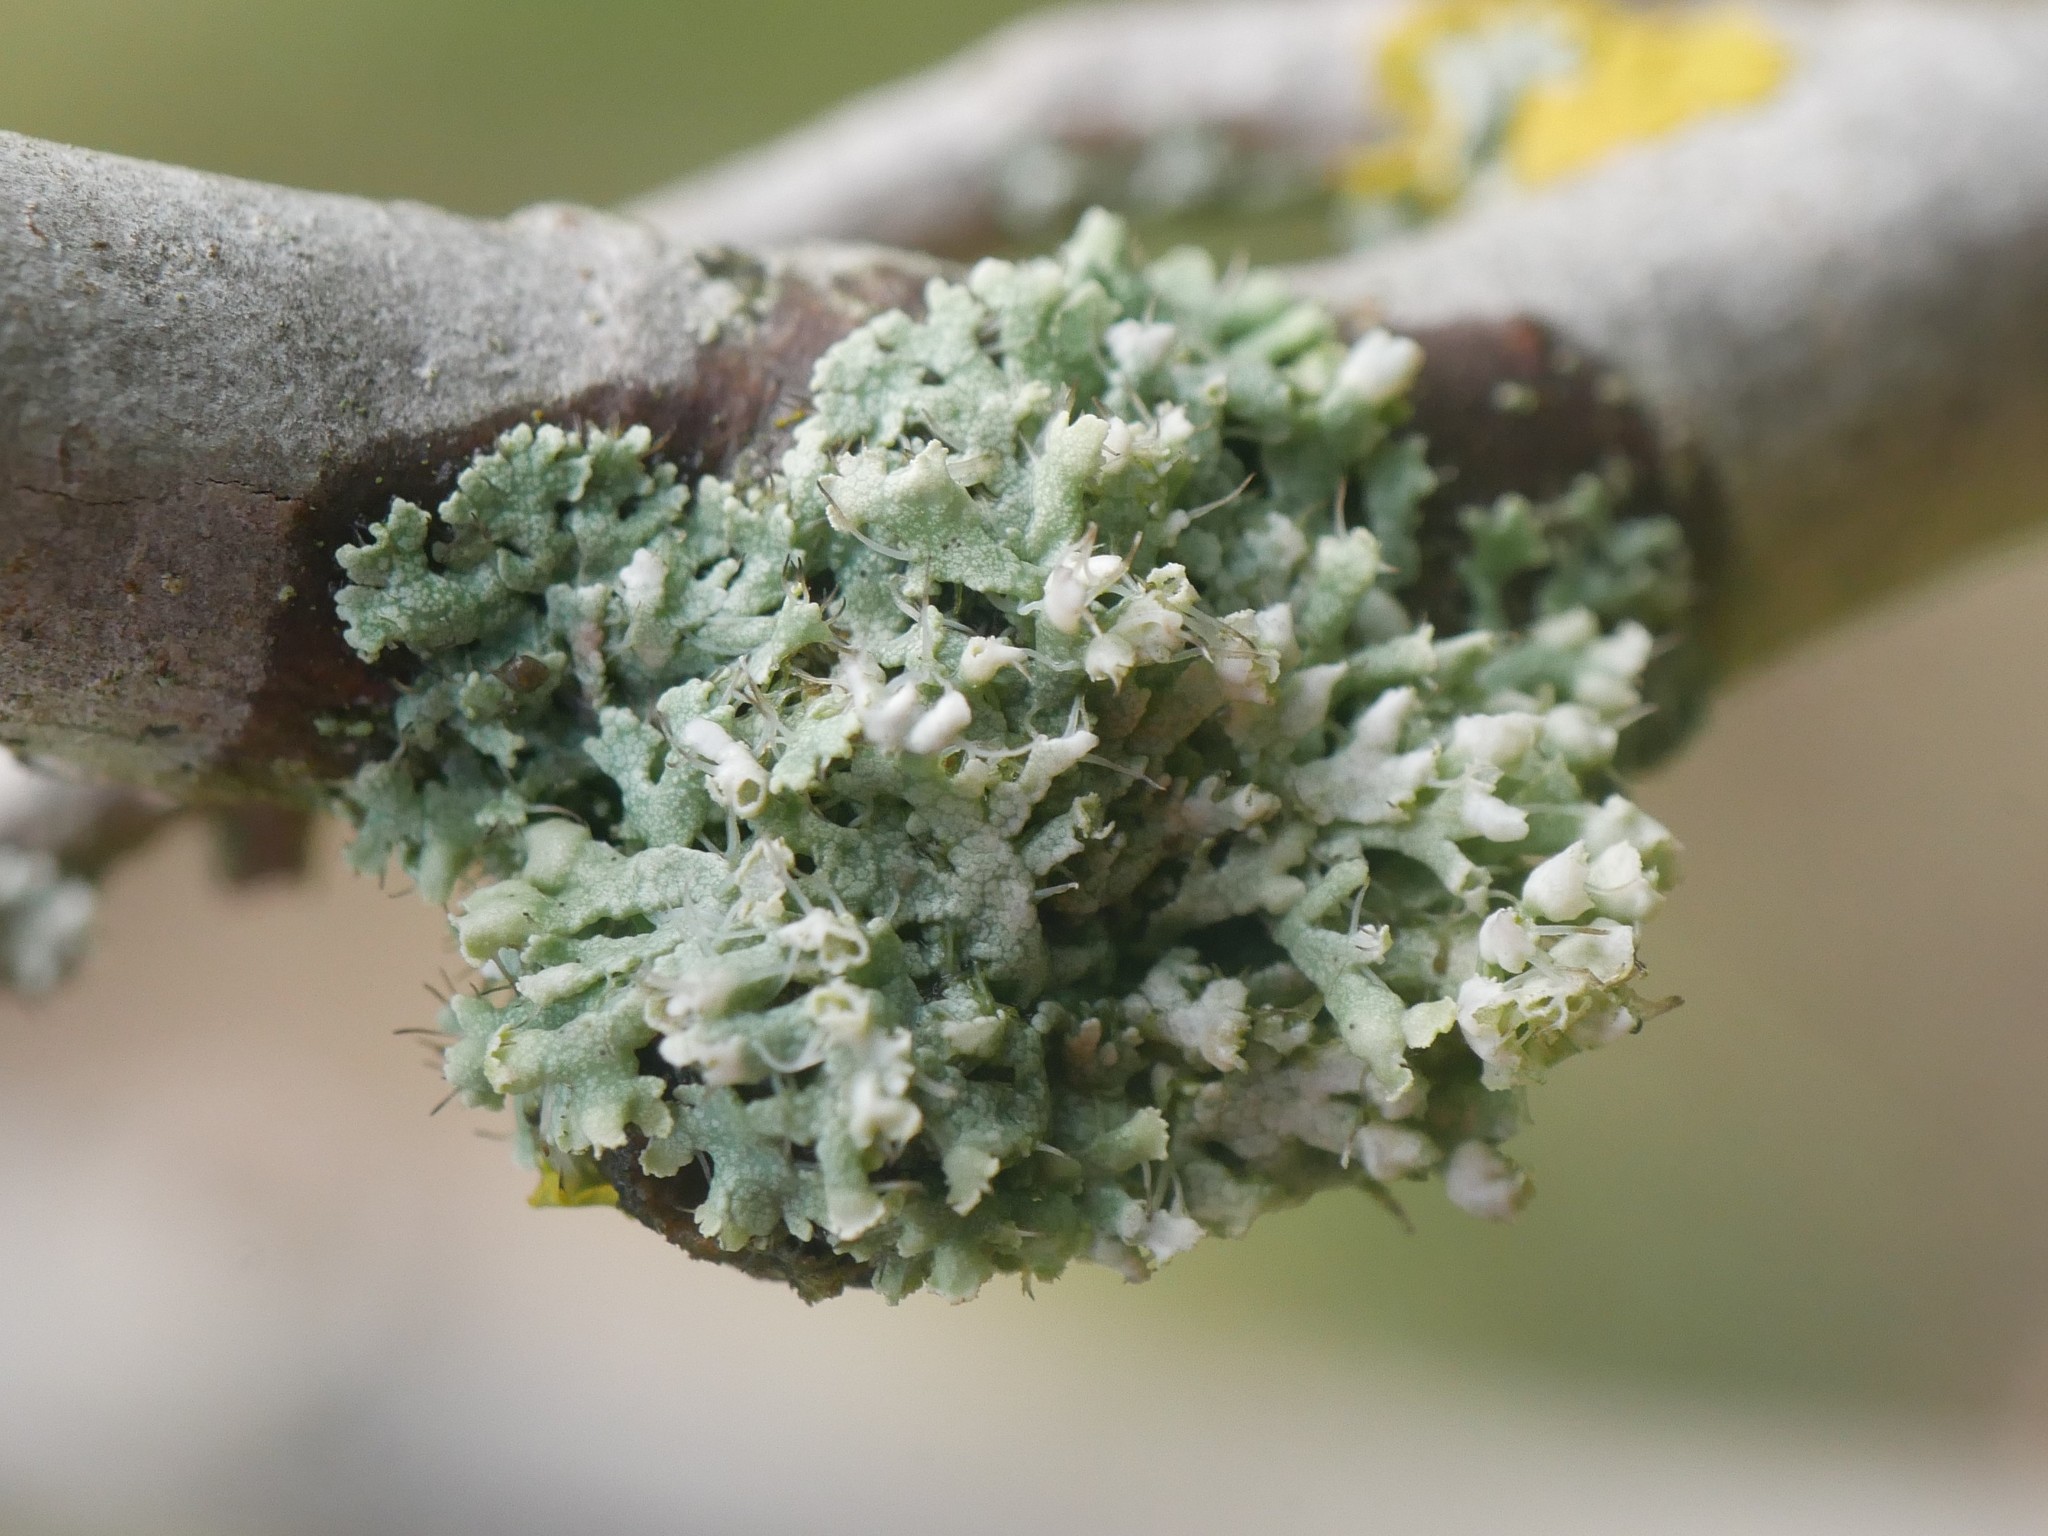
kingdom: Fungi
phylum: Ascomycota
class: Lecanoromycetes
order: Caliciales
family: Physciaceae
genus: Physcia
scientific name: Physcia adscendens
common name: Hooded rosette lichen
